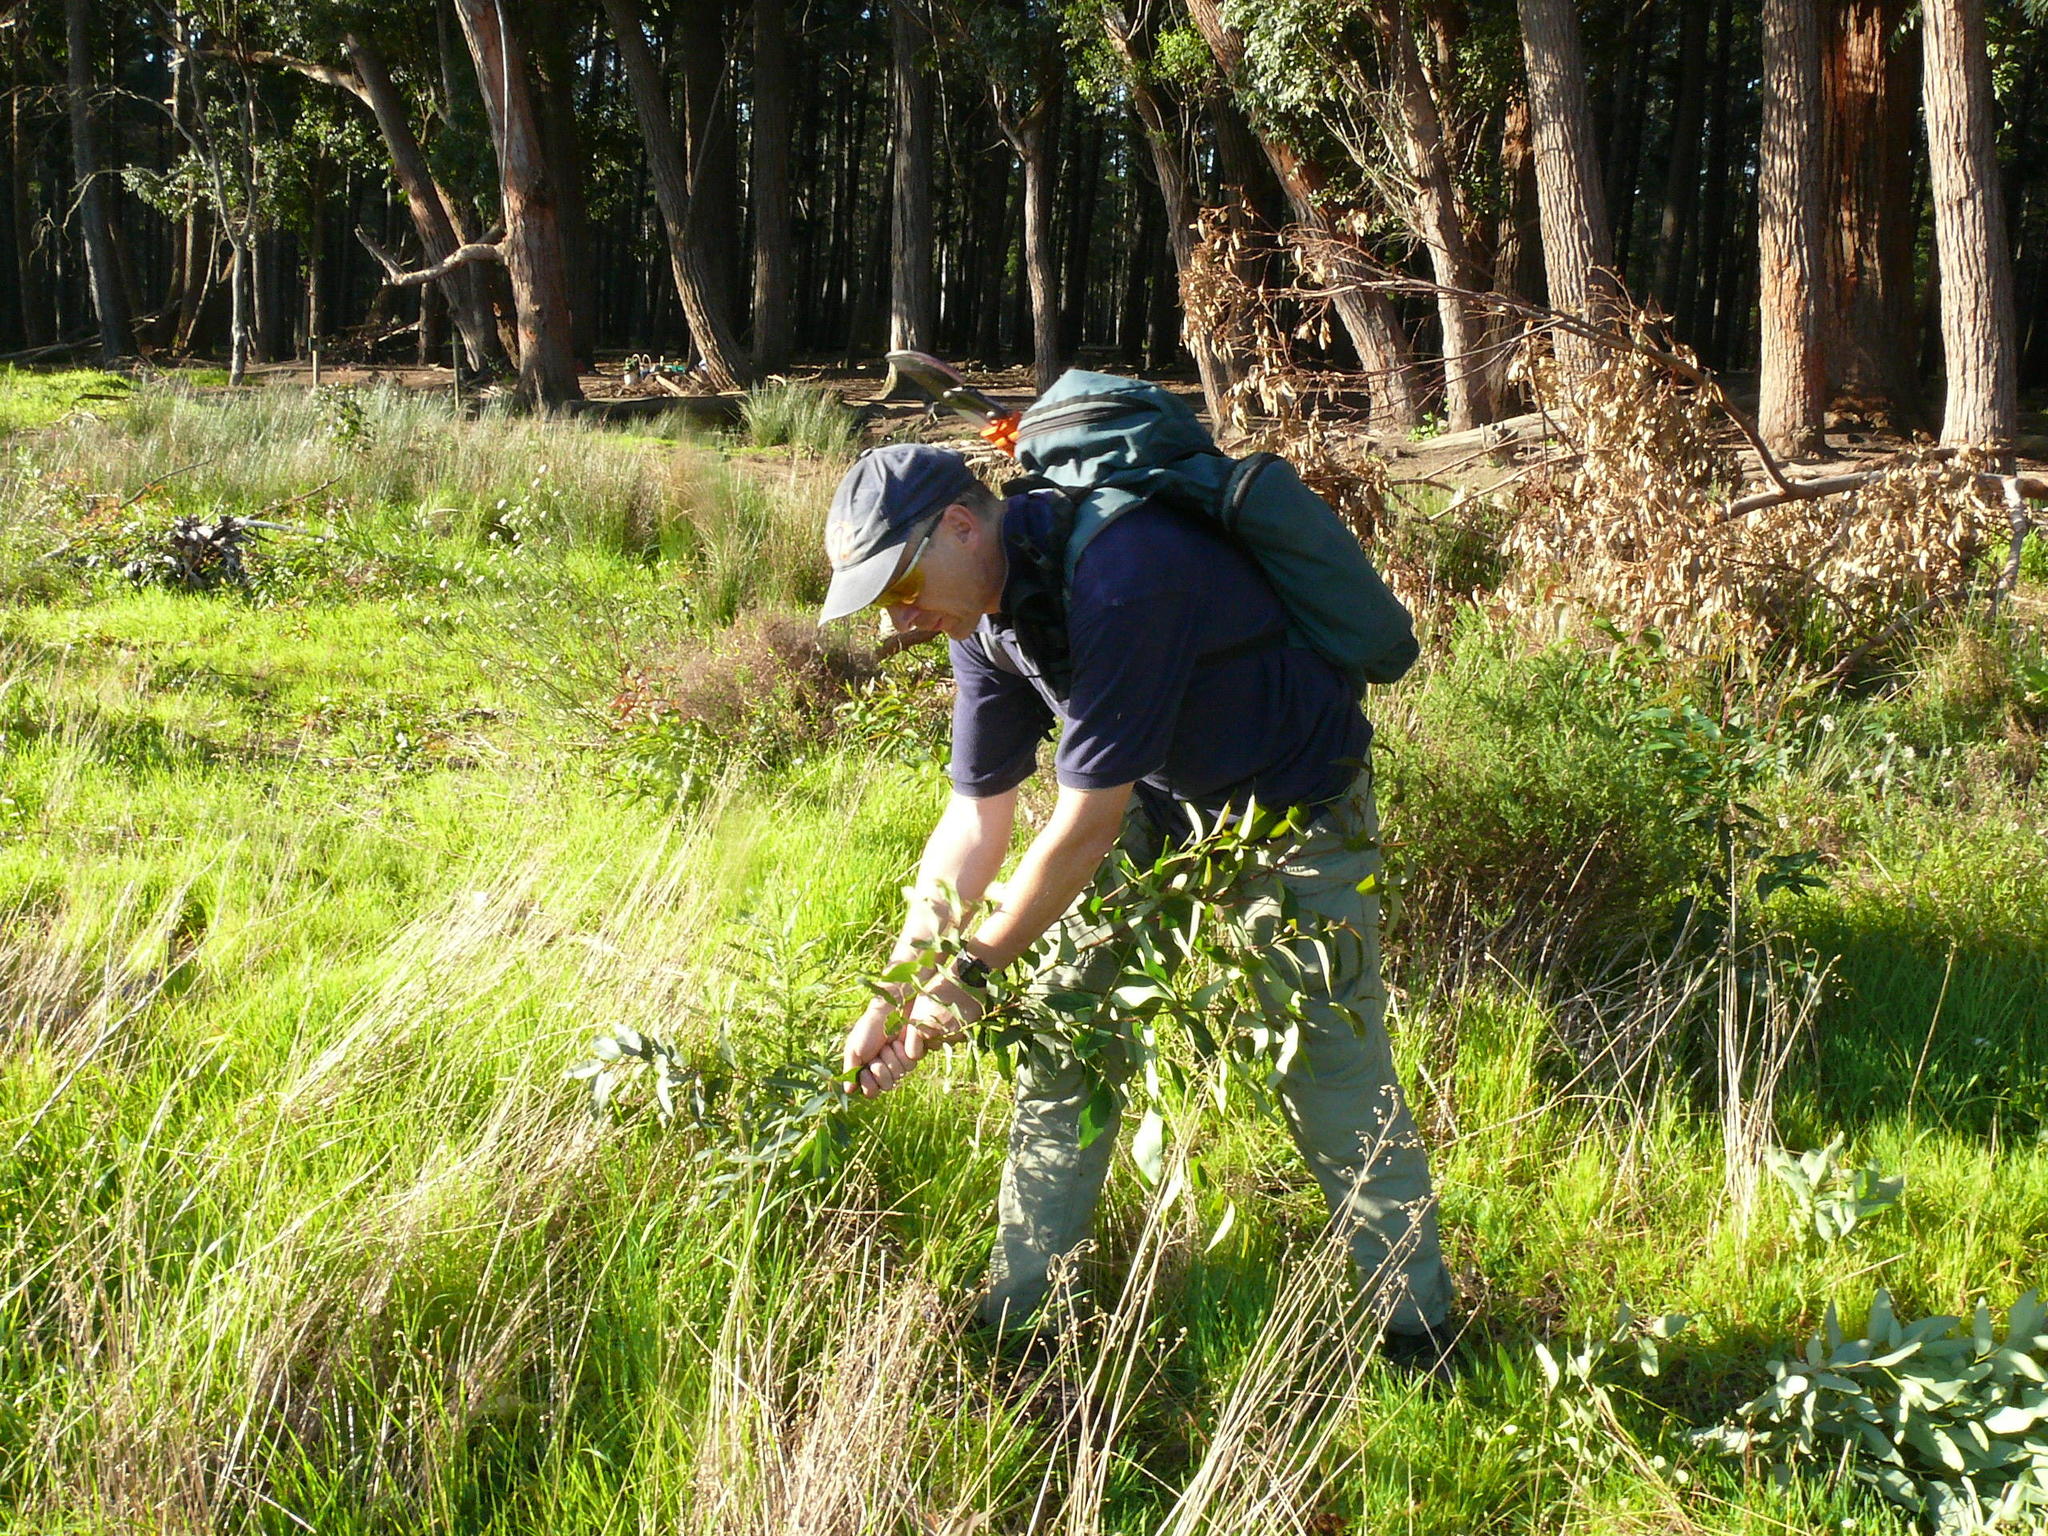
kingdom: Plantae
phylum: Tracheophyta
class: Magnoliopsida
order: Myrtales
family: Myrtaceae
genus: Eucalyptus
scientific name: Eucalyptus botryoides
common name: Bangalay
